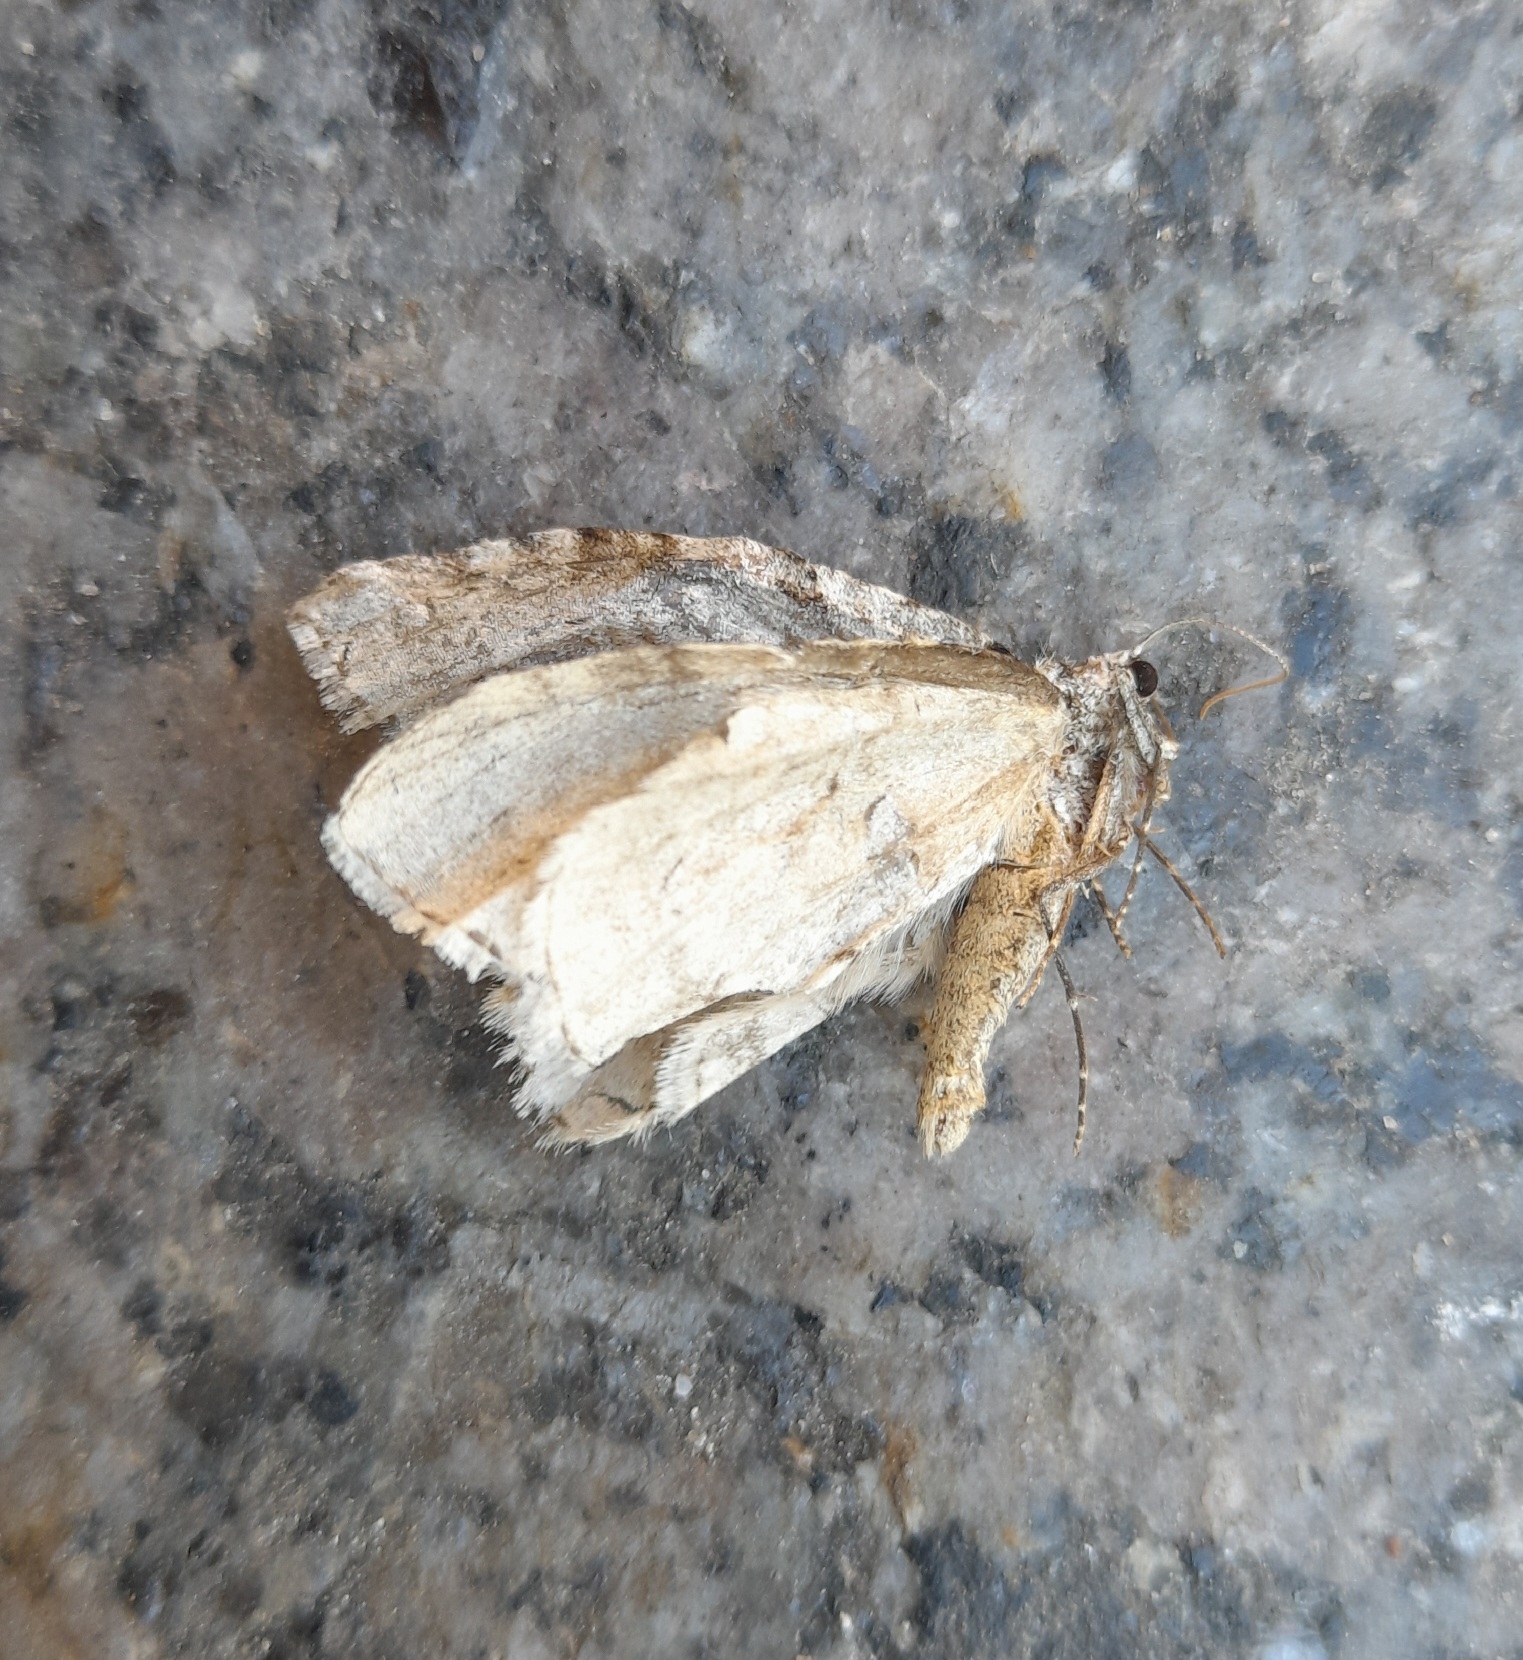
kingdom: Animalia
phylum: Arthropoda
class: Insecta
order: Lepidoptera
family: Geometridae
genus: Epirrita
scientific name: Epirrita autumnata
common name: Autumnal moth
